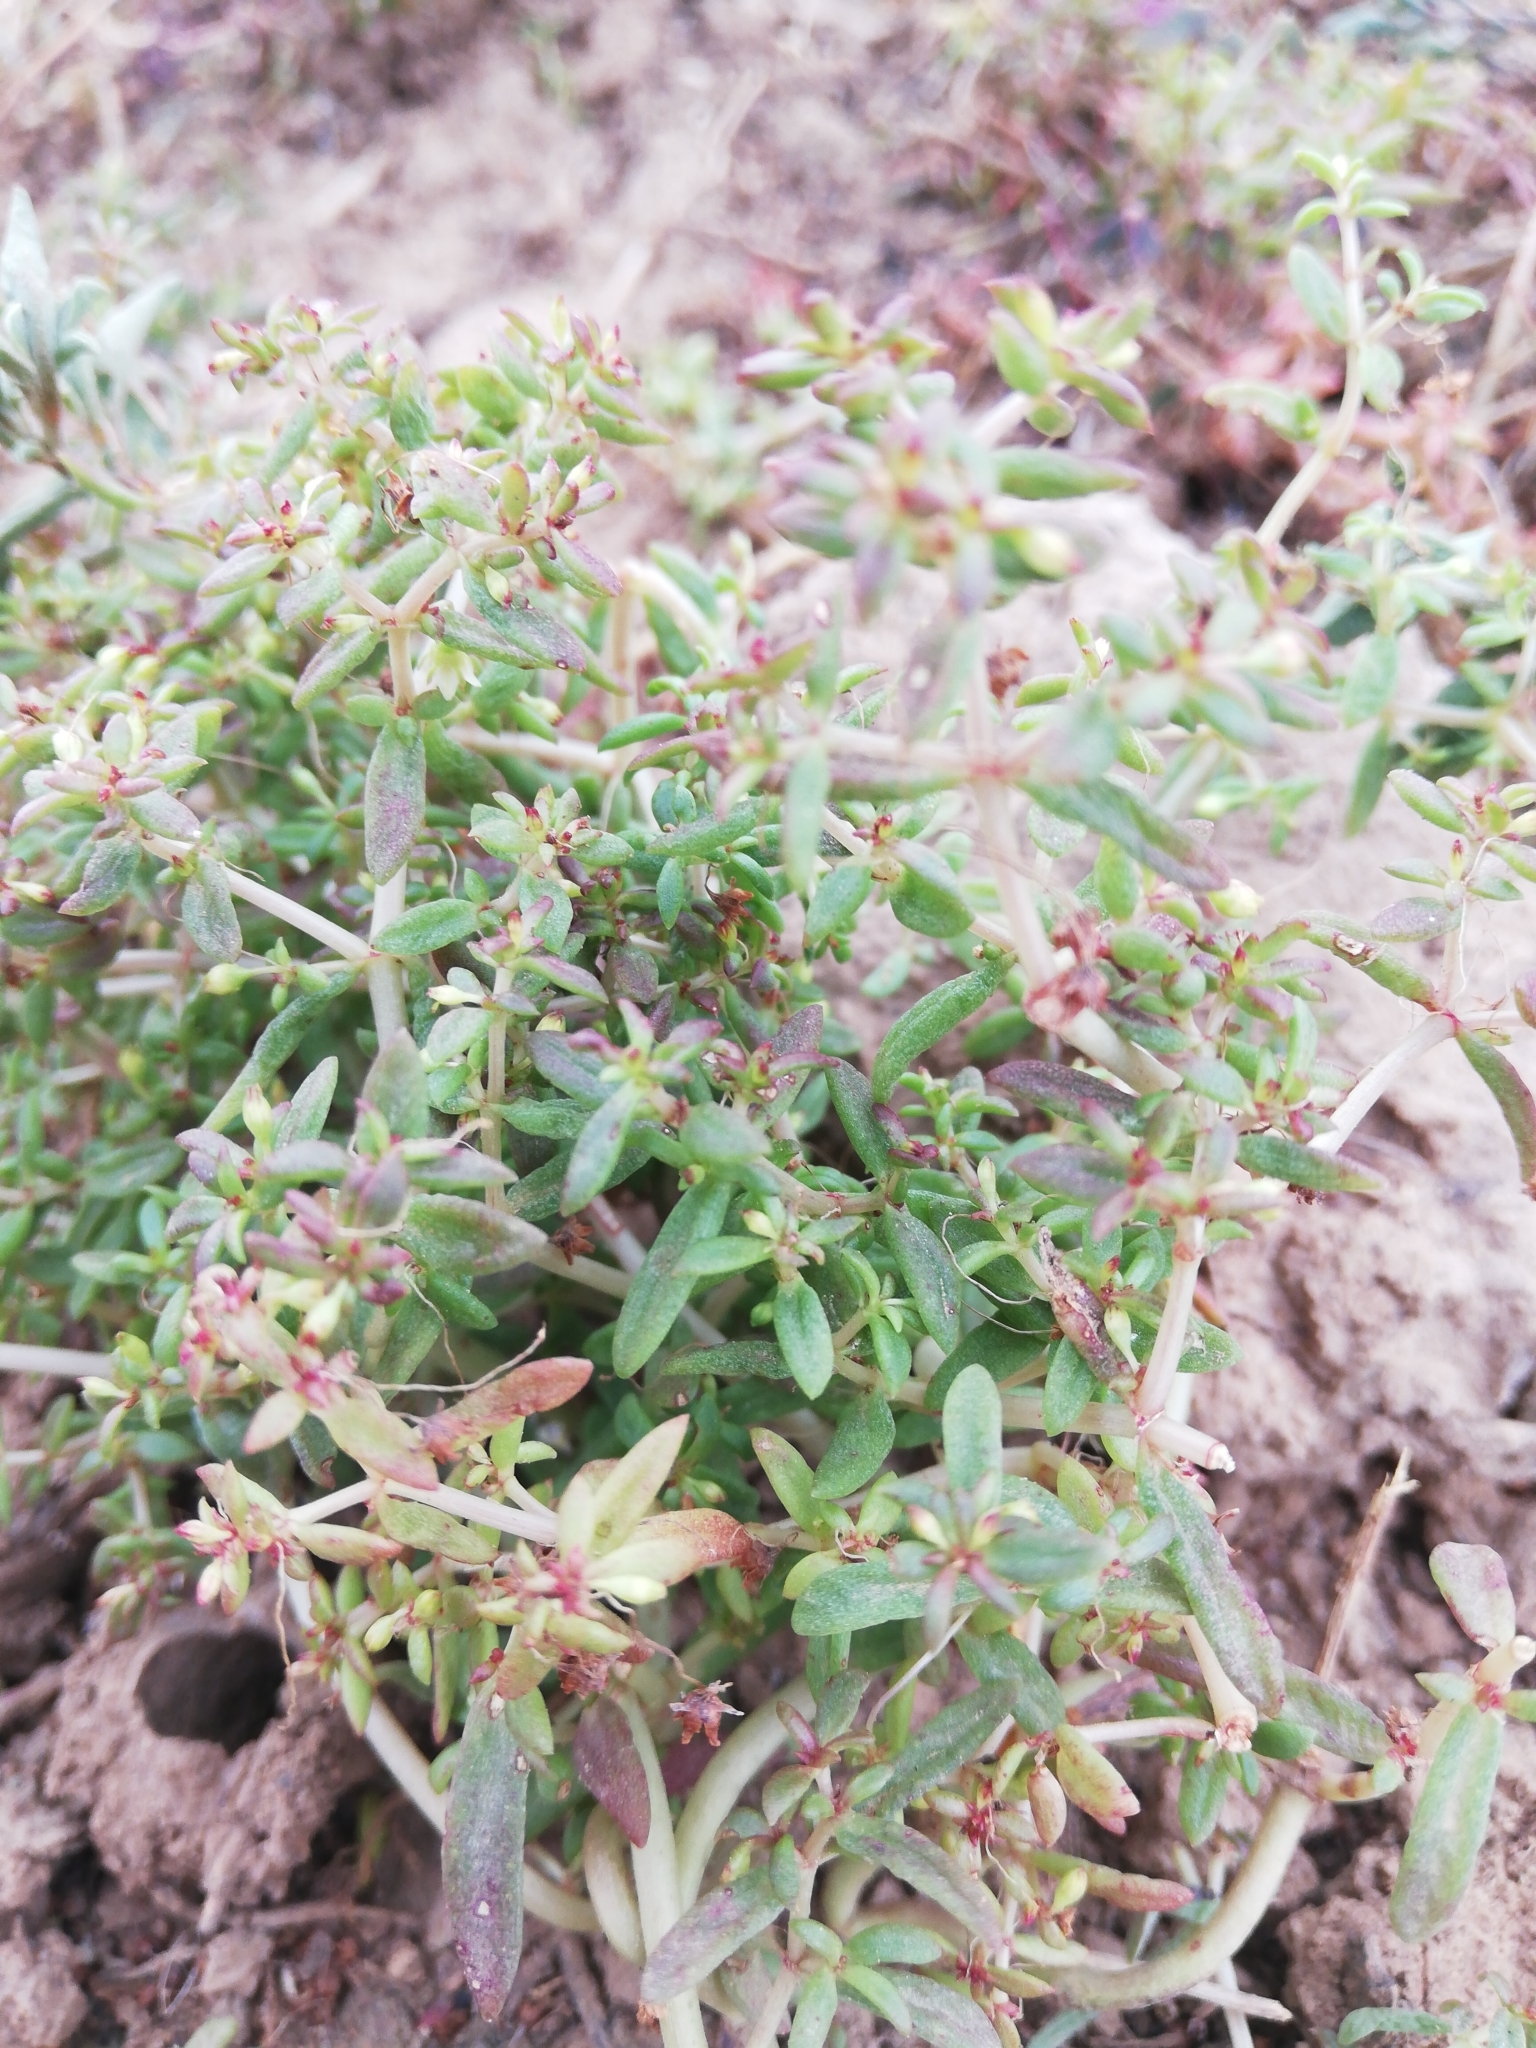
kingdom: Plantae
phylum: Tracheophyta
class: Magnoliopsida
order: Saxifragales
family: Crassulaceae
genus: Crassula
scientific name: Crassula expansa
